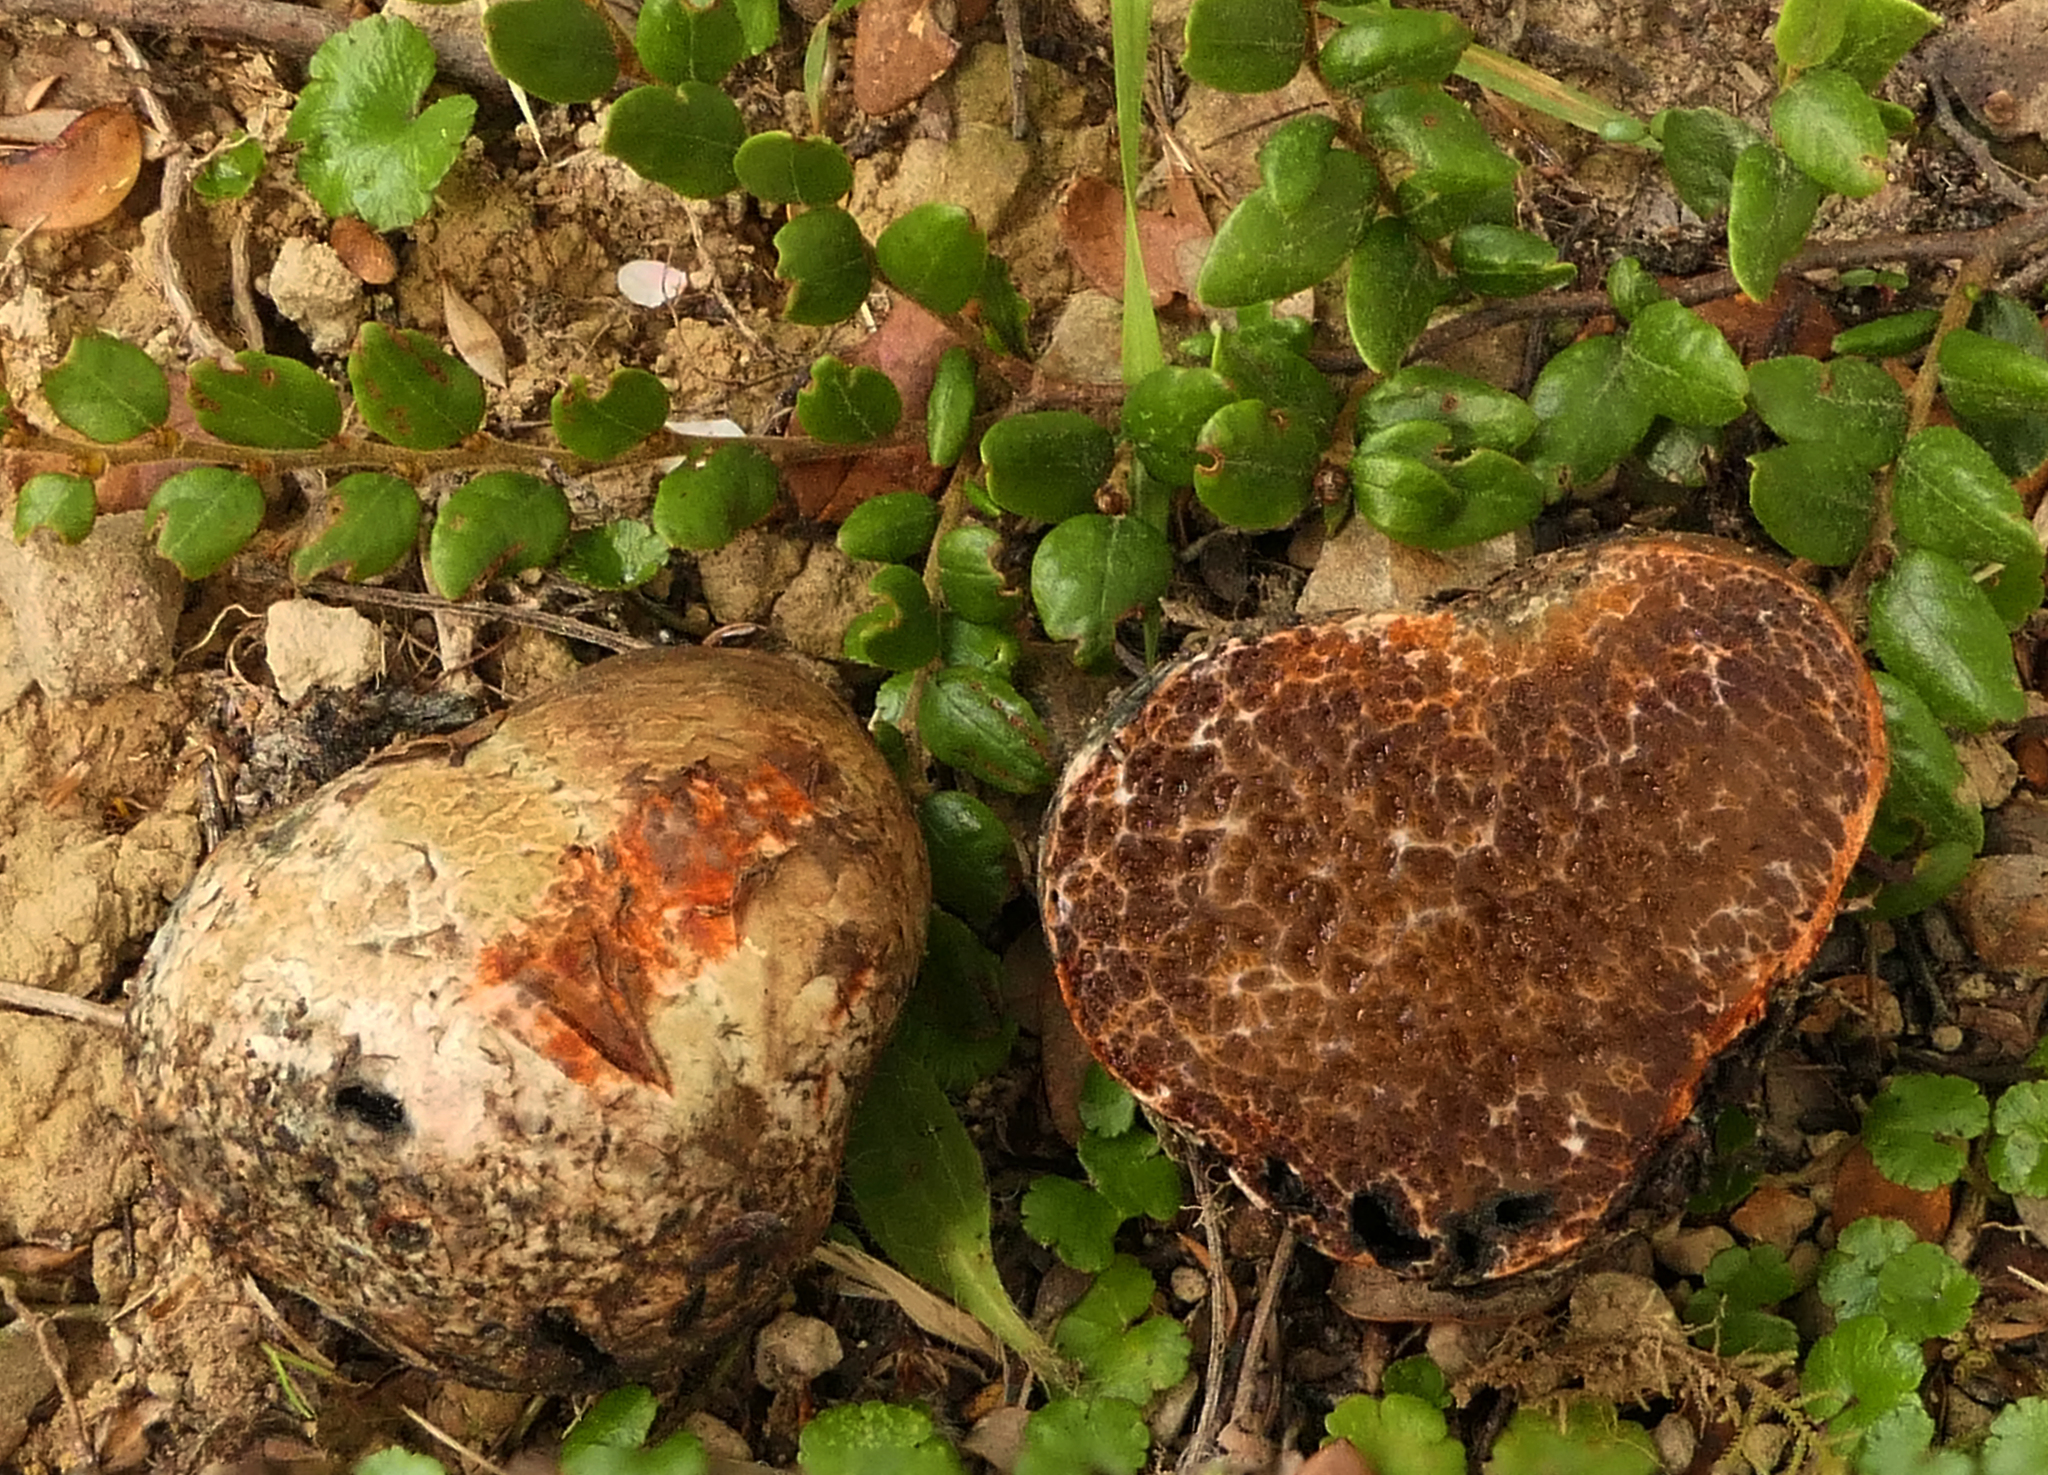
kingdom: Fungi
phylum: Basidiomycota
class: Agaricomycetes
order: Boletales
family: Boletaceae
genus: Octaviania
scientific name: Octaviania tasmanica
